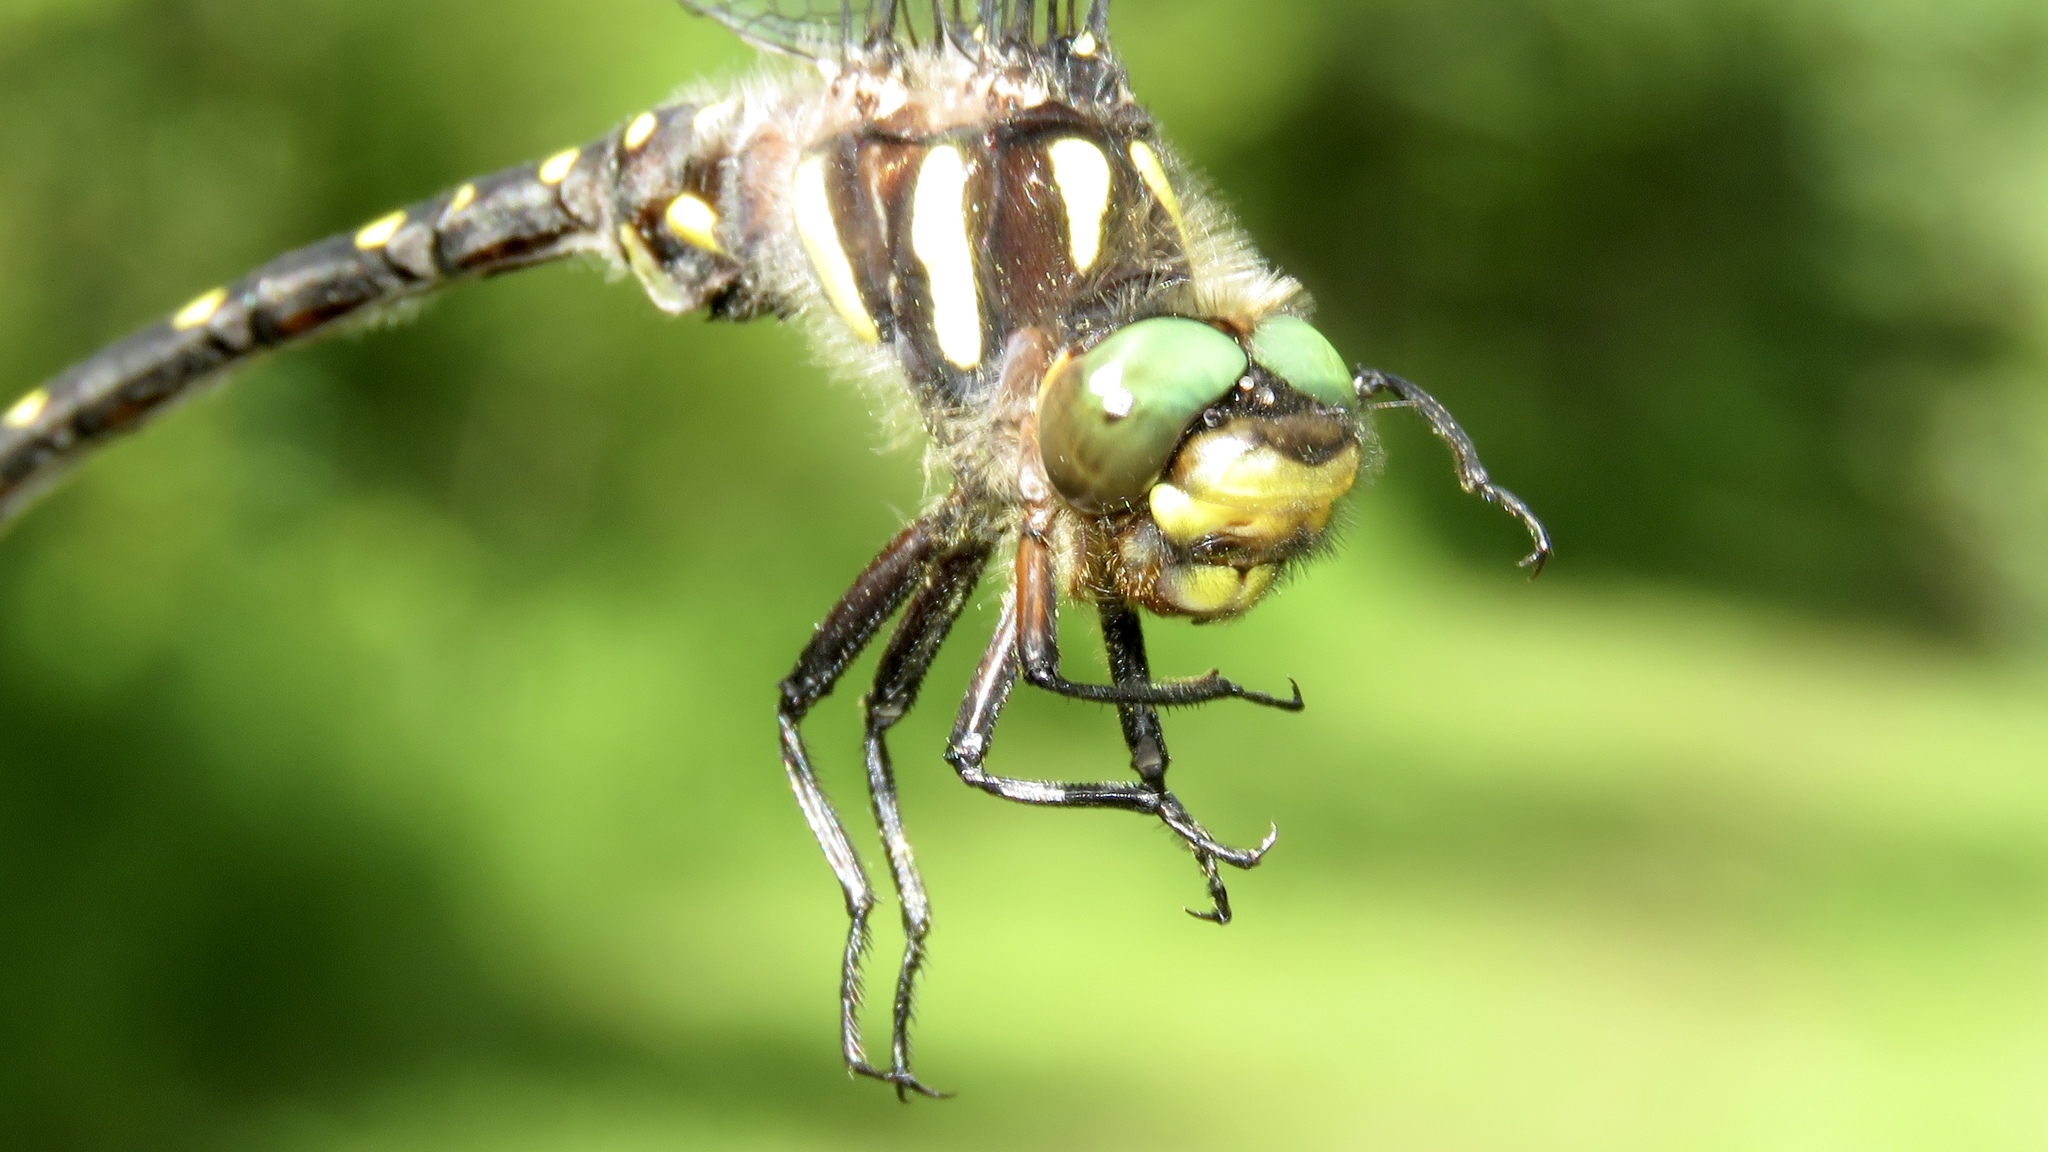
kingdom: Animalia
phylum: Arthropoda
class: Insecta
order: Odonata
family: Cordulegastridae
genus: Cordulegaster
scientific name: Cordulegaster maculata
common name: Twin-spotted spiketail
